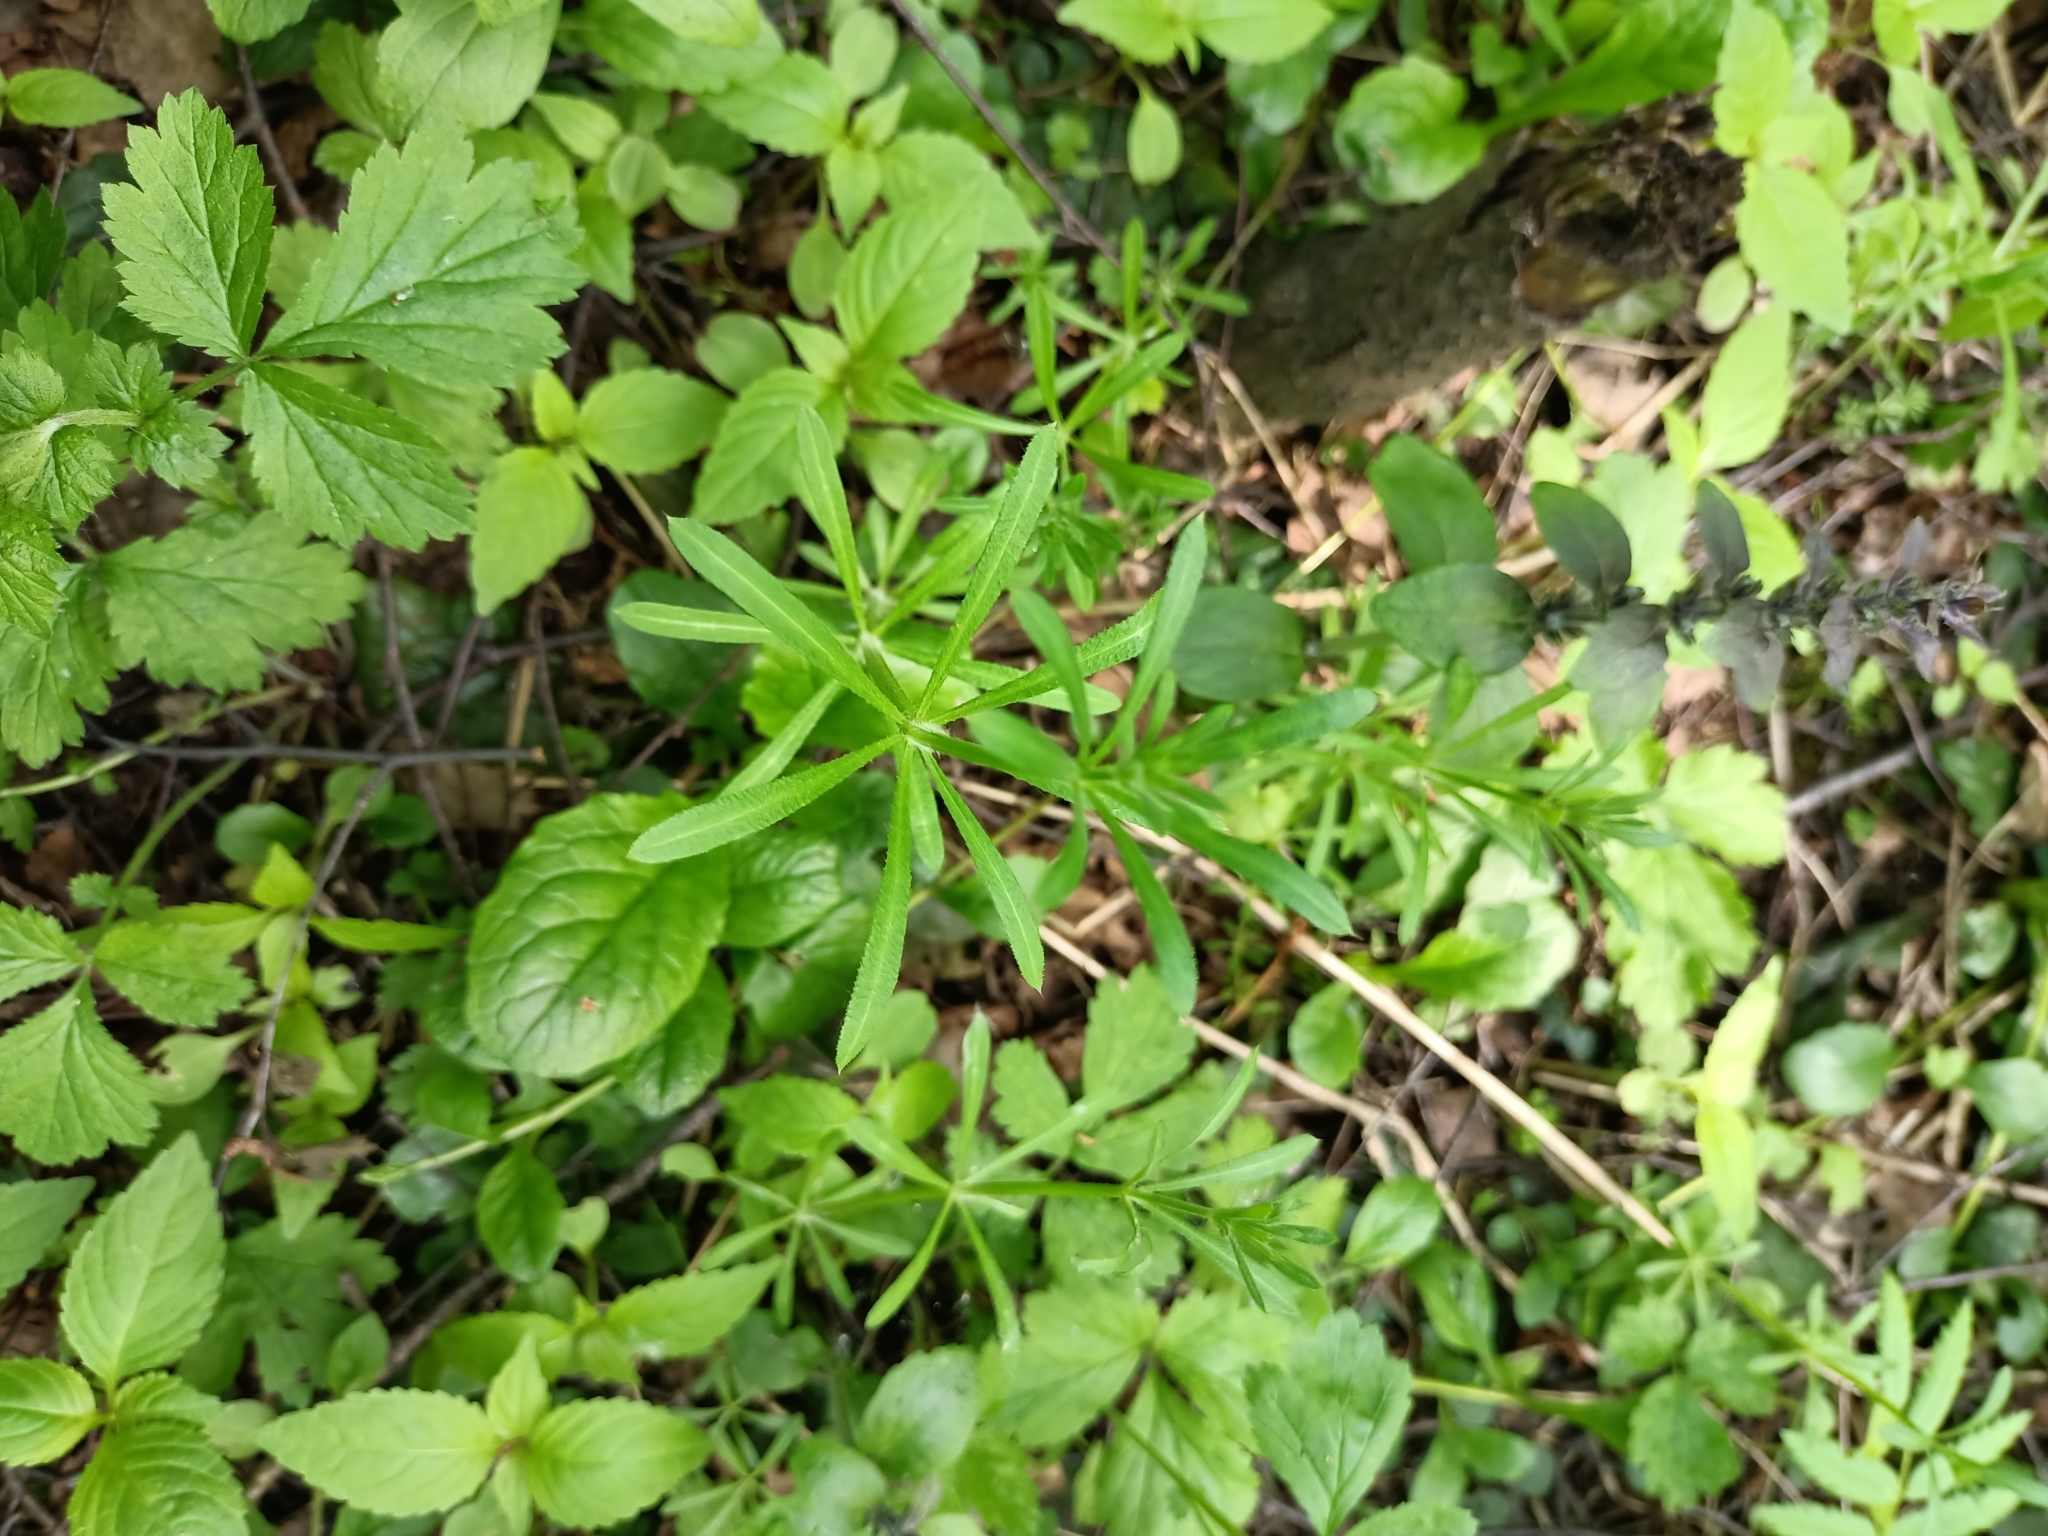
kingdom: Plantae
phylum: Tracheophyta
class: Magnoliopsida
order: Gentianales
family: Rubiaceae
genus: Galium
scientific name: Galium aparine
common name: Cleavers
